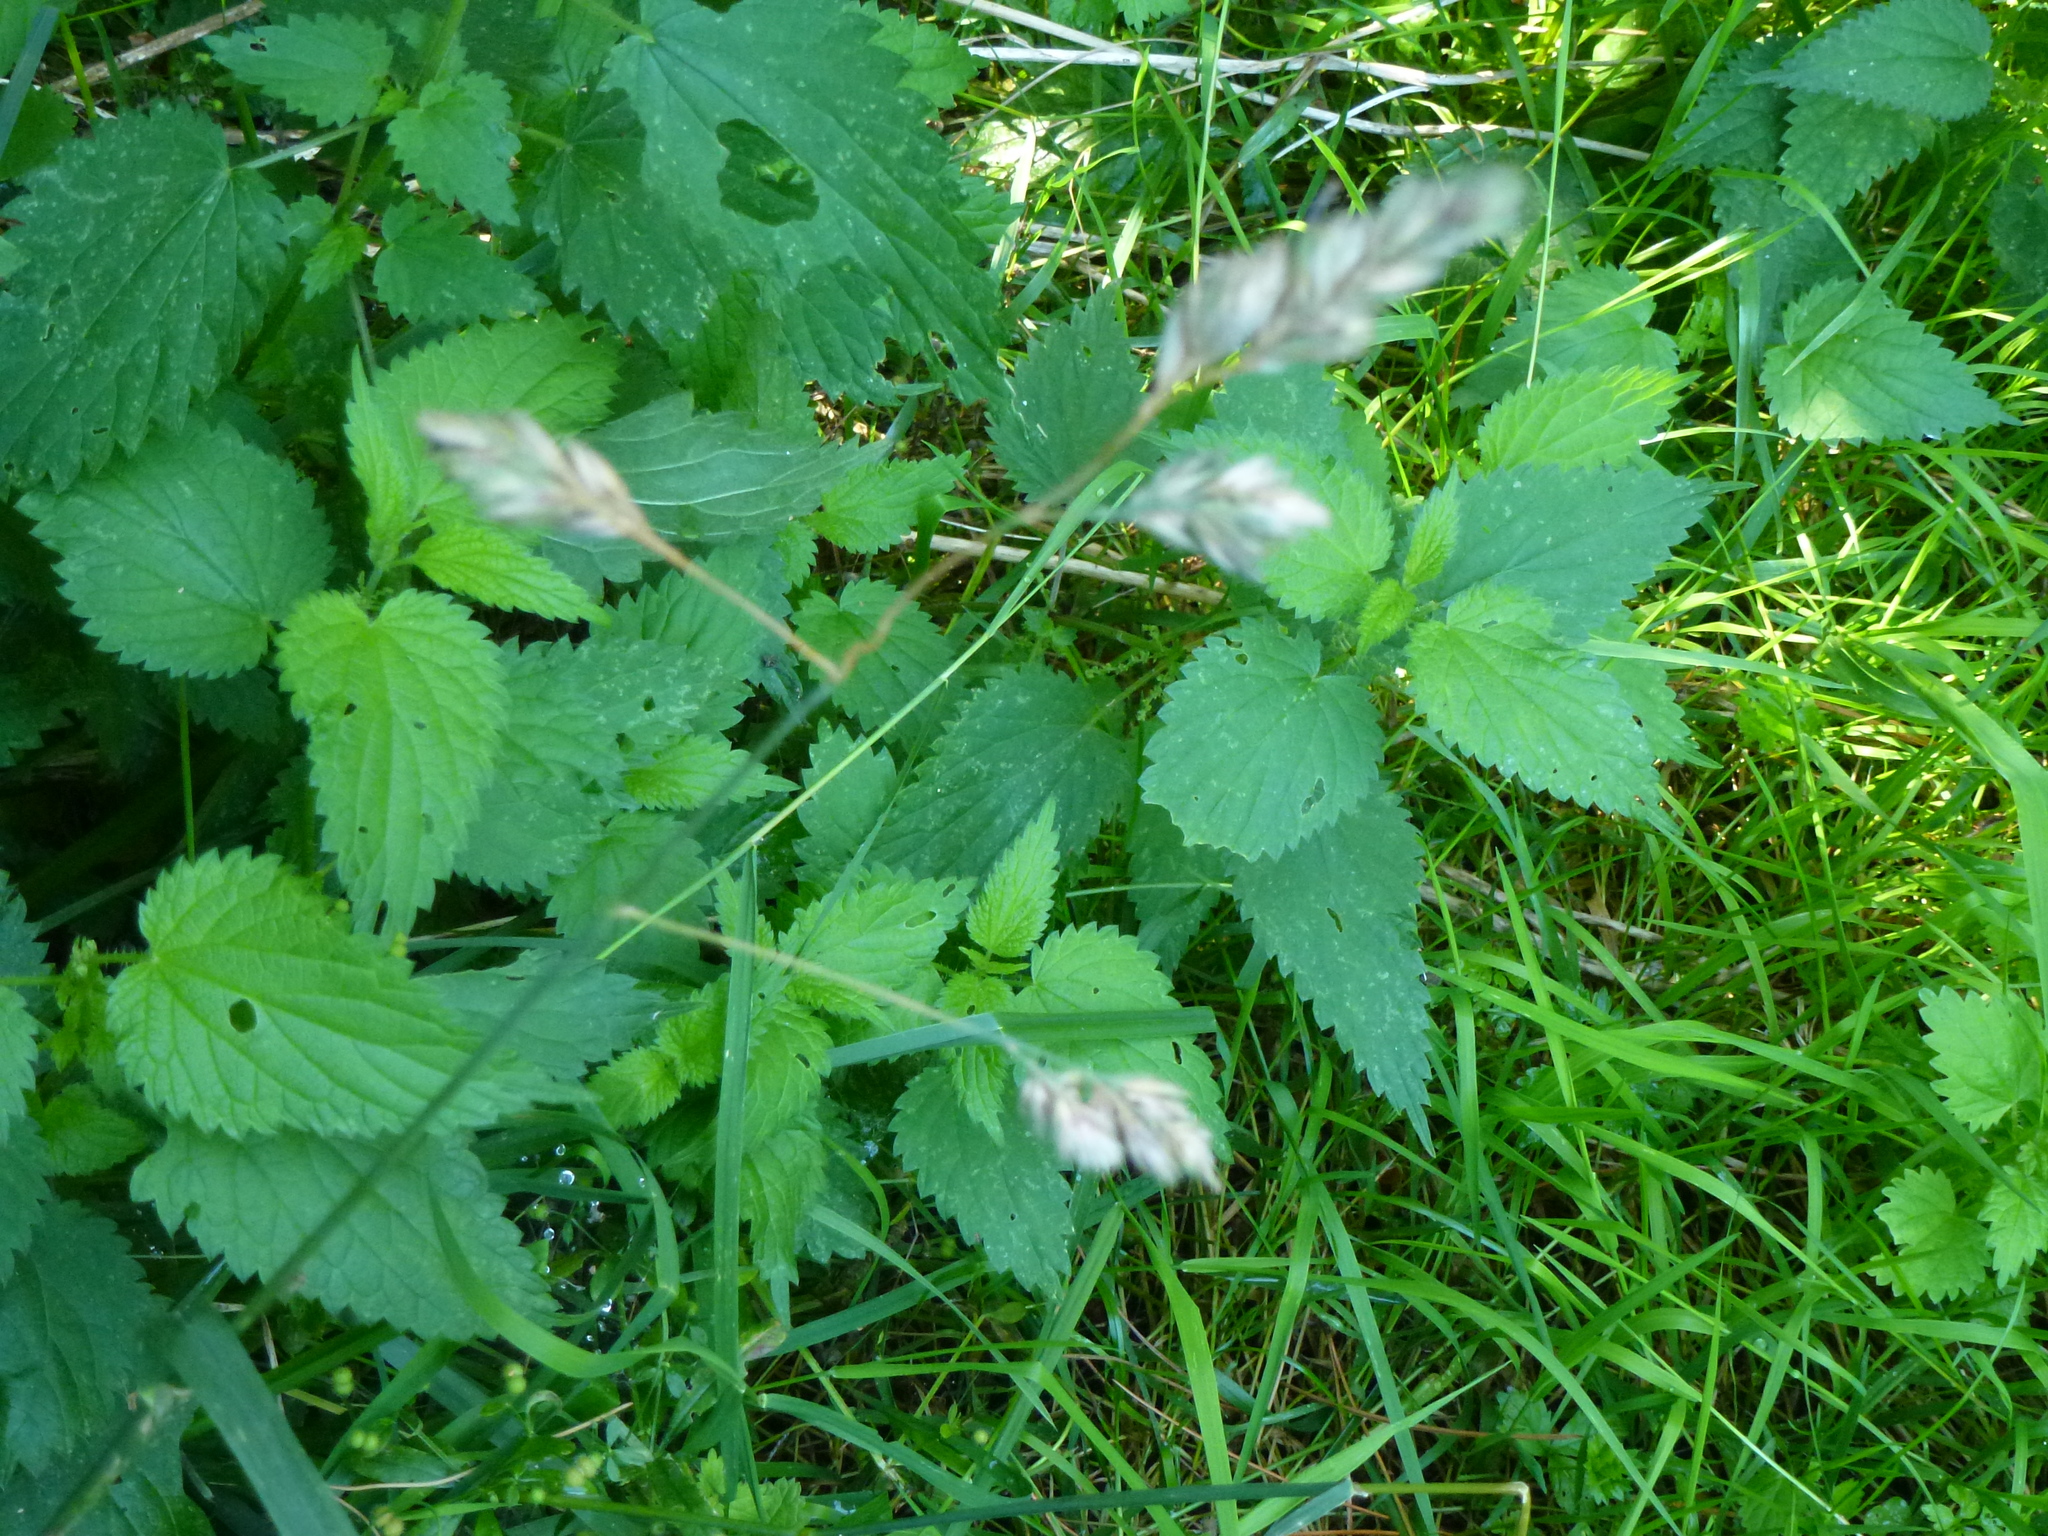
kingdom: Plantae
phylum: Tracheophyta
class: Liliopsida
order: Poales
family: Poaceae
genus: Dactylis
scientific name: Dactylis glomerata
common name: Orchardgrass
